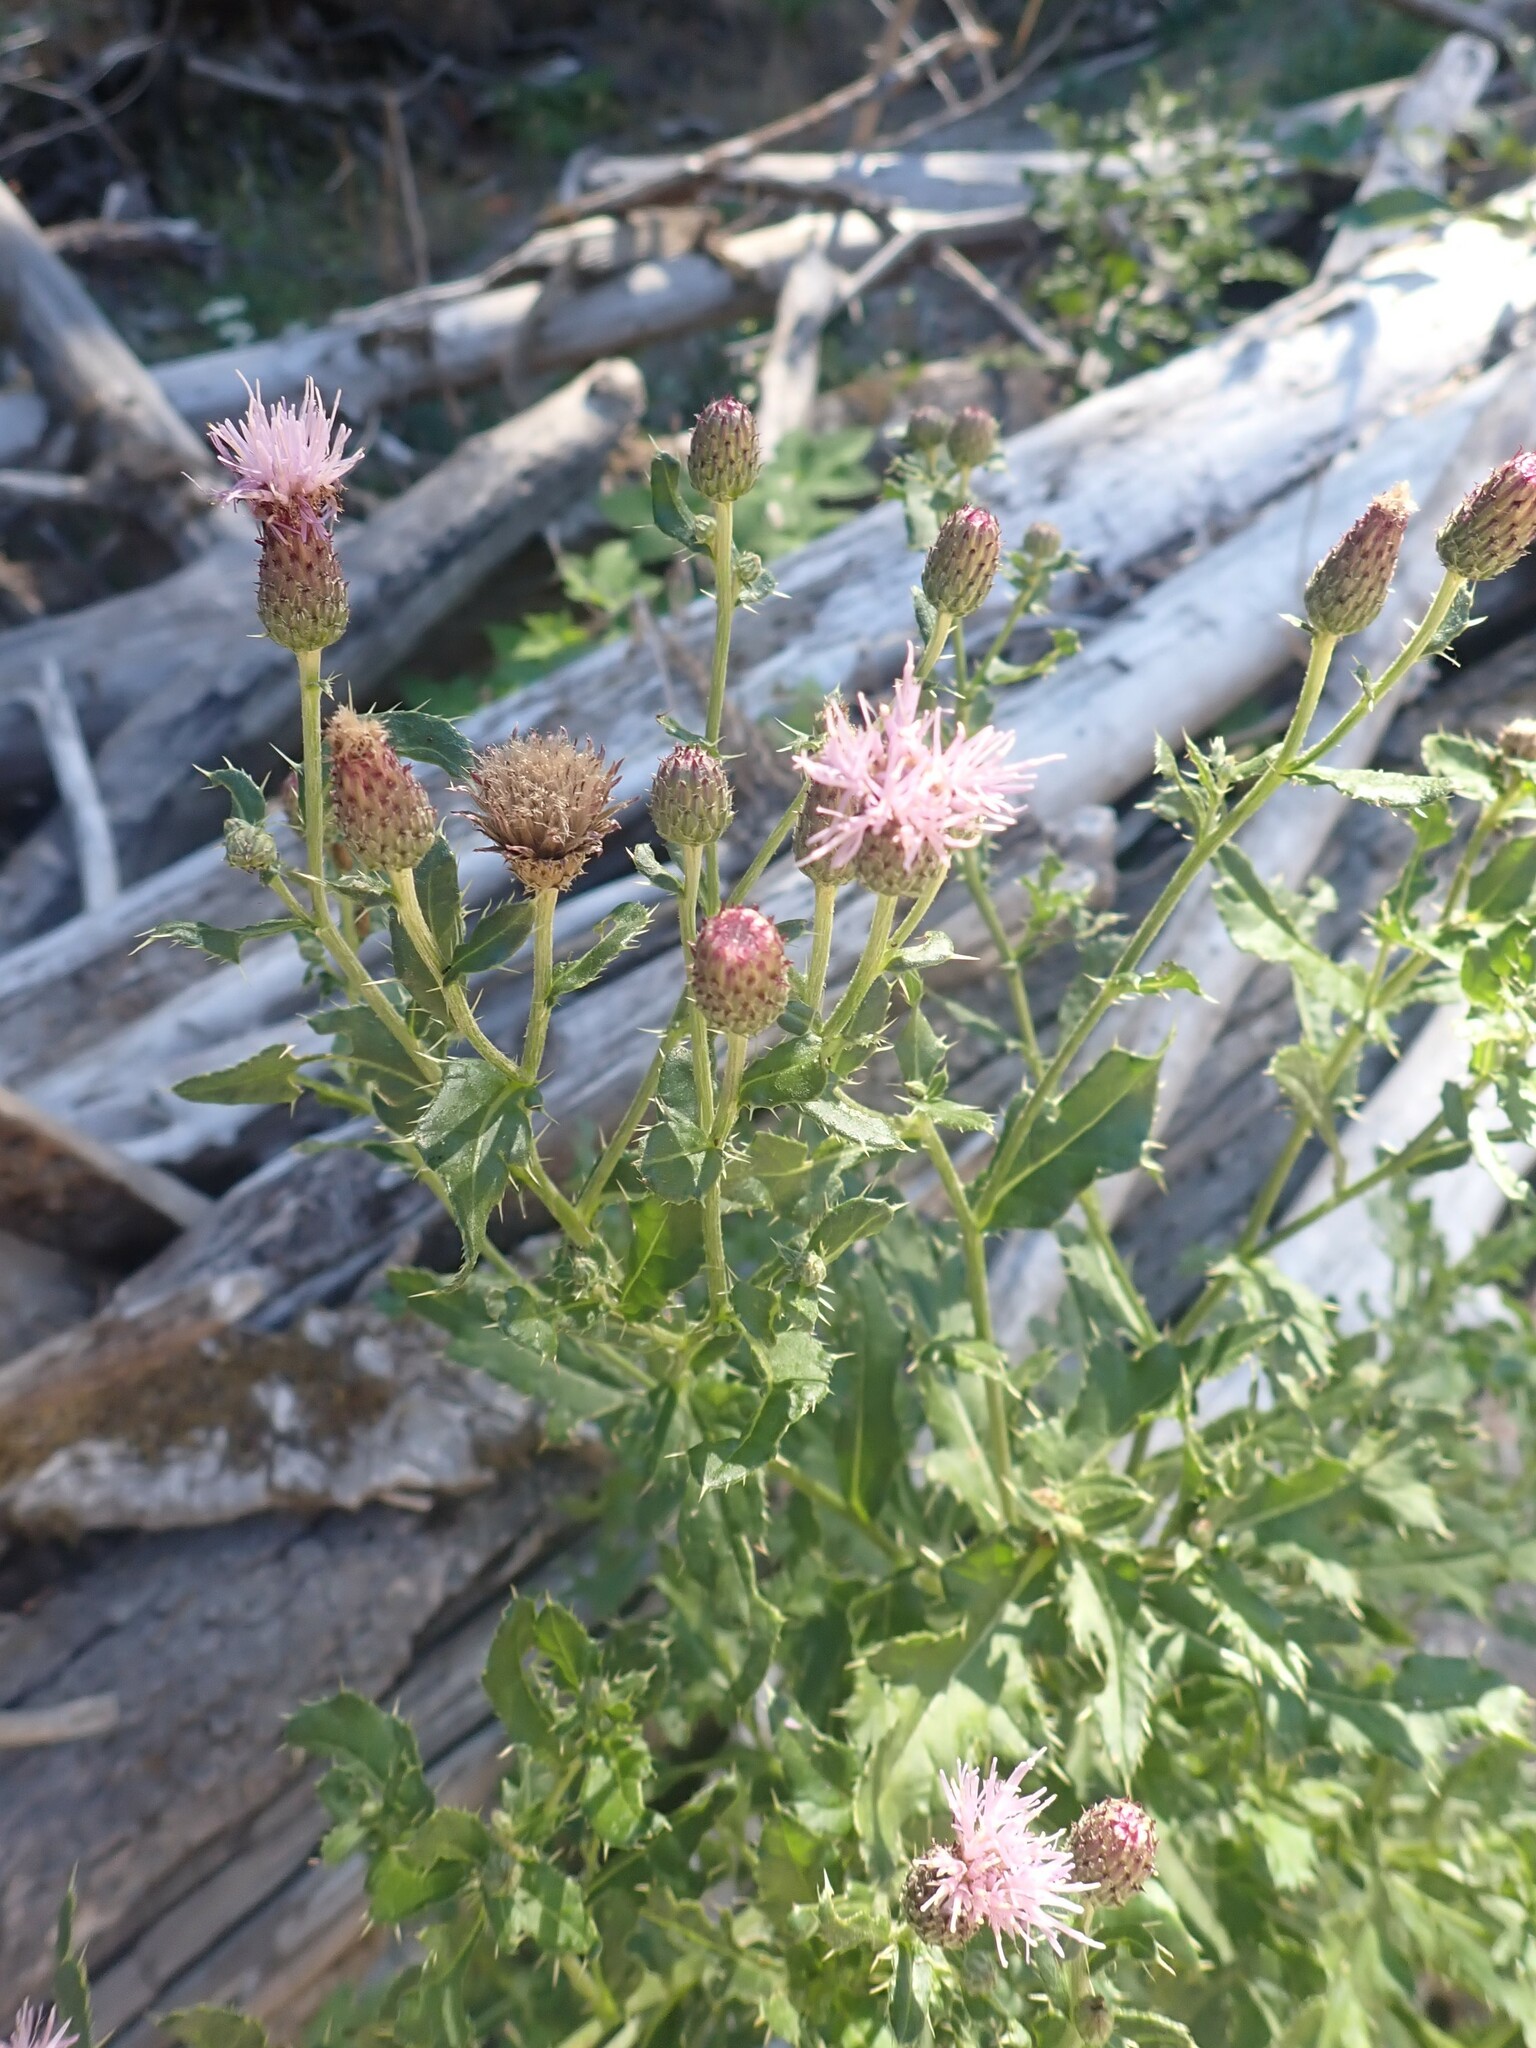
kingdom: Plantae
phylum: Tracheophyta
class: Magnoliopsida
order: Asterales
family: Asteraceae
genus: Cirsium
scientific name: Cirsium arvense
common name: Creeping thistle
